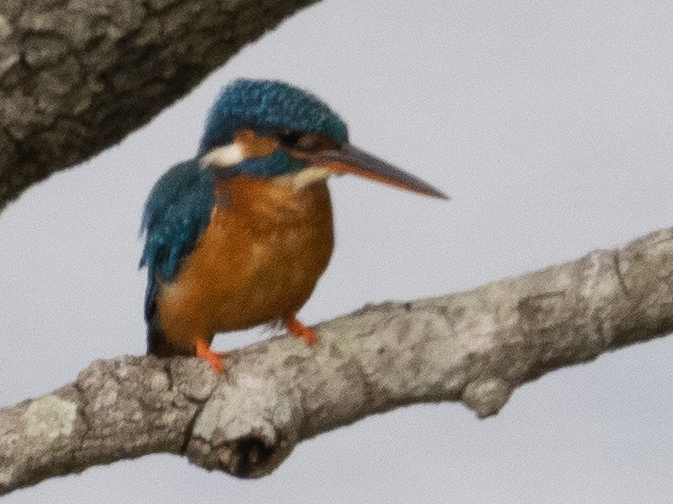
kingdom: Animalia
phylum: Chordata
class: Aves
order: Coraciiformes
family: Alcedinidae
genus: Alcedo
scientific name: Alcedo atthis
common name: Common kingfisher
